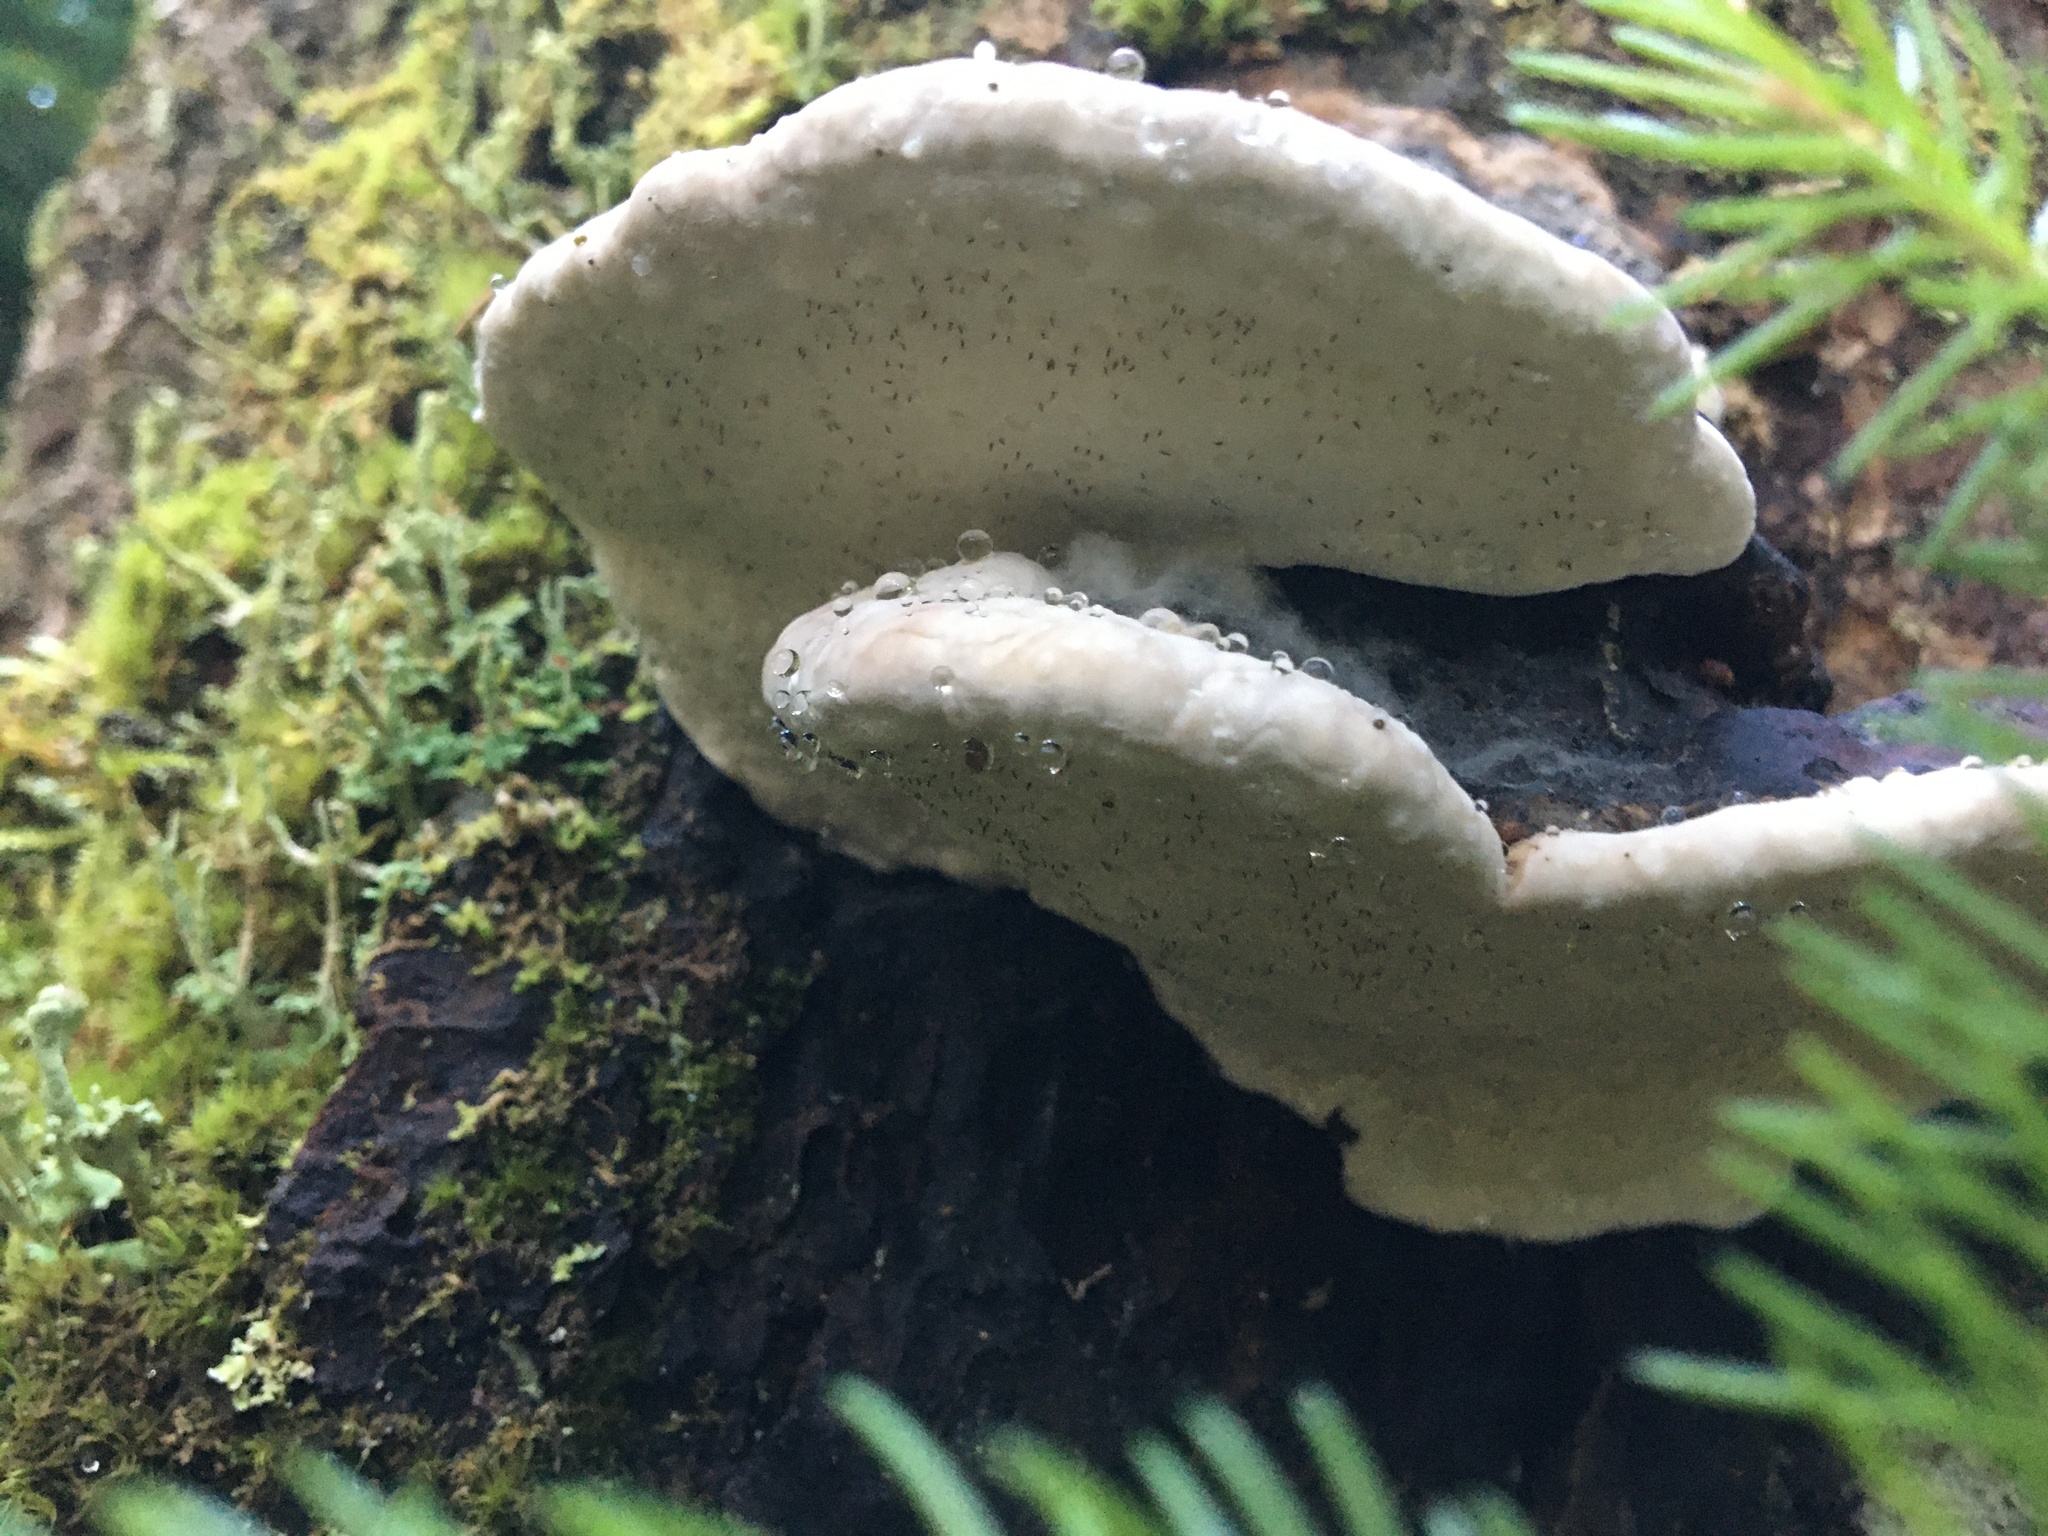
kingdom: Fungi
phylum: Basidiomycota
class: Agaricomycetes
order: Polyporales
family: Fomitopsidaceae
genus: Fomitopsis
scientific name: Fomitopsis mounceae
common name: Northern red belt
